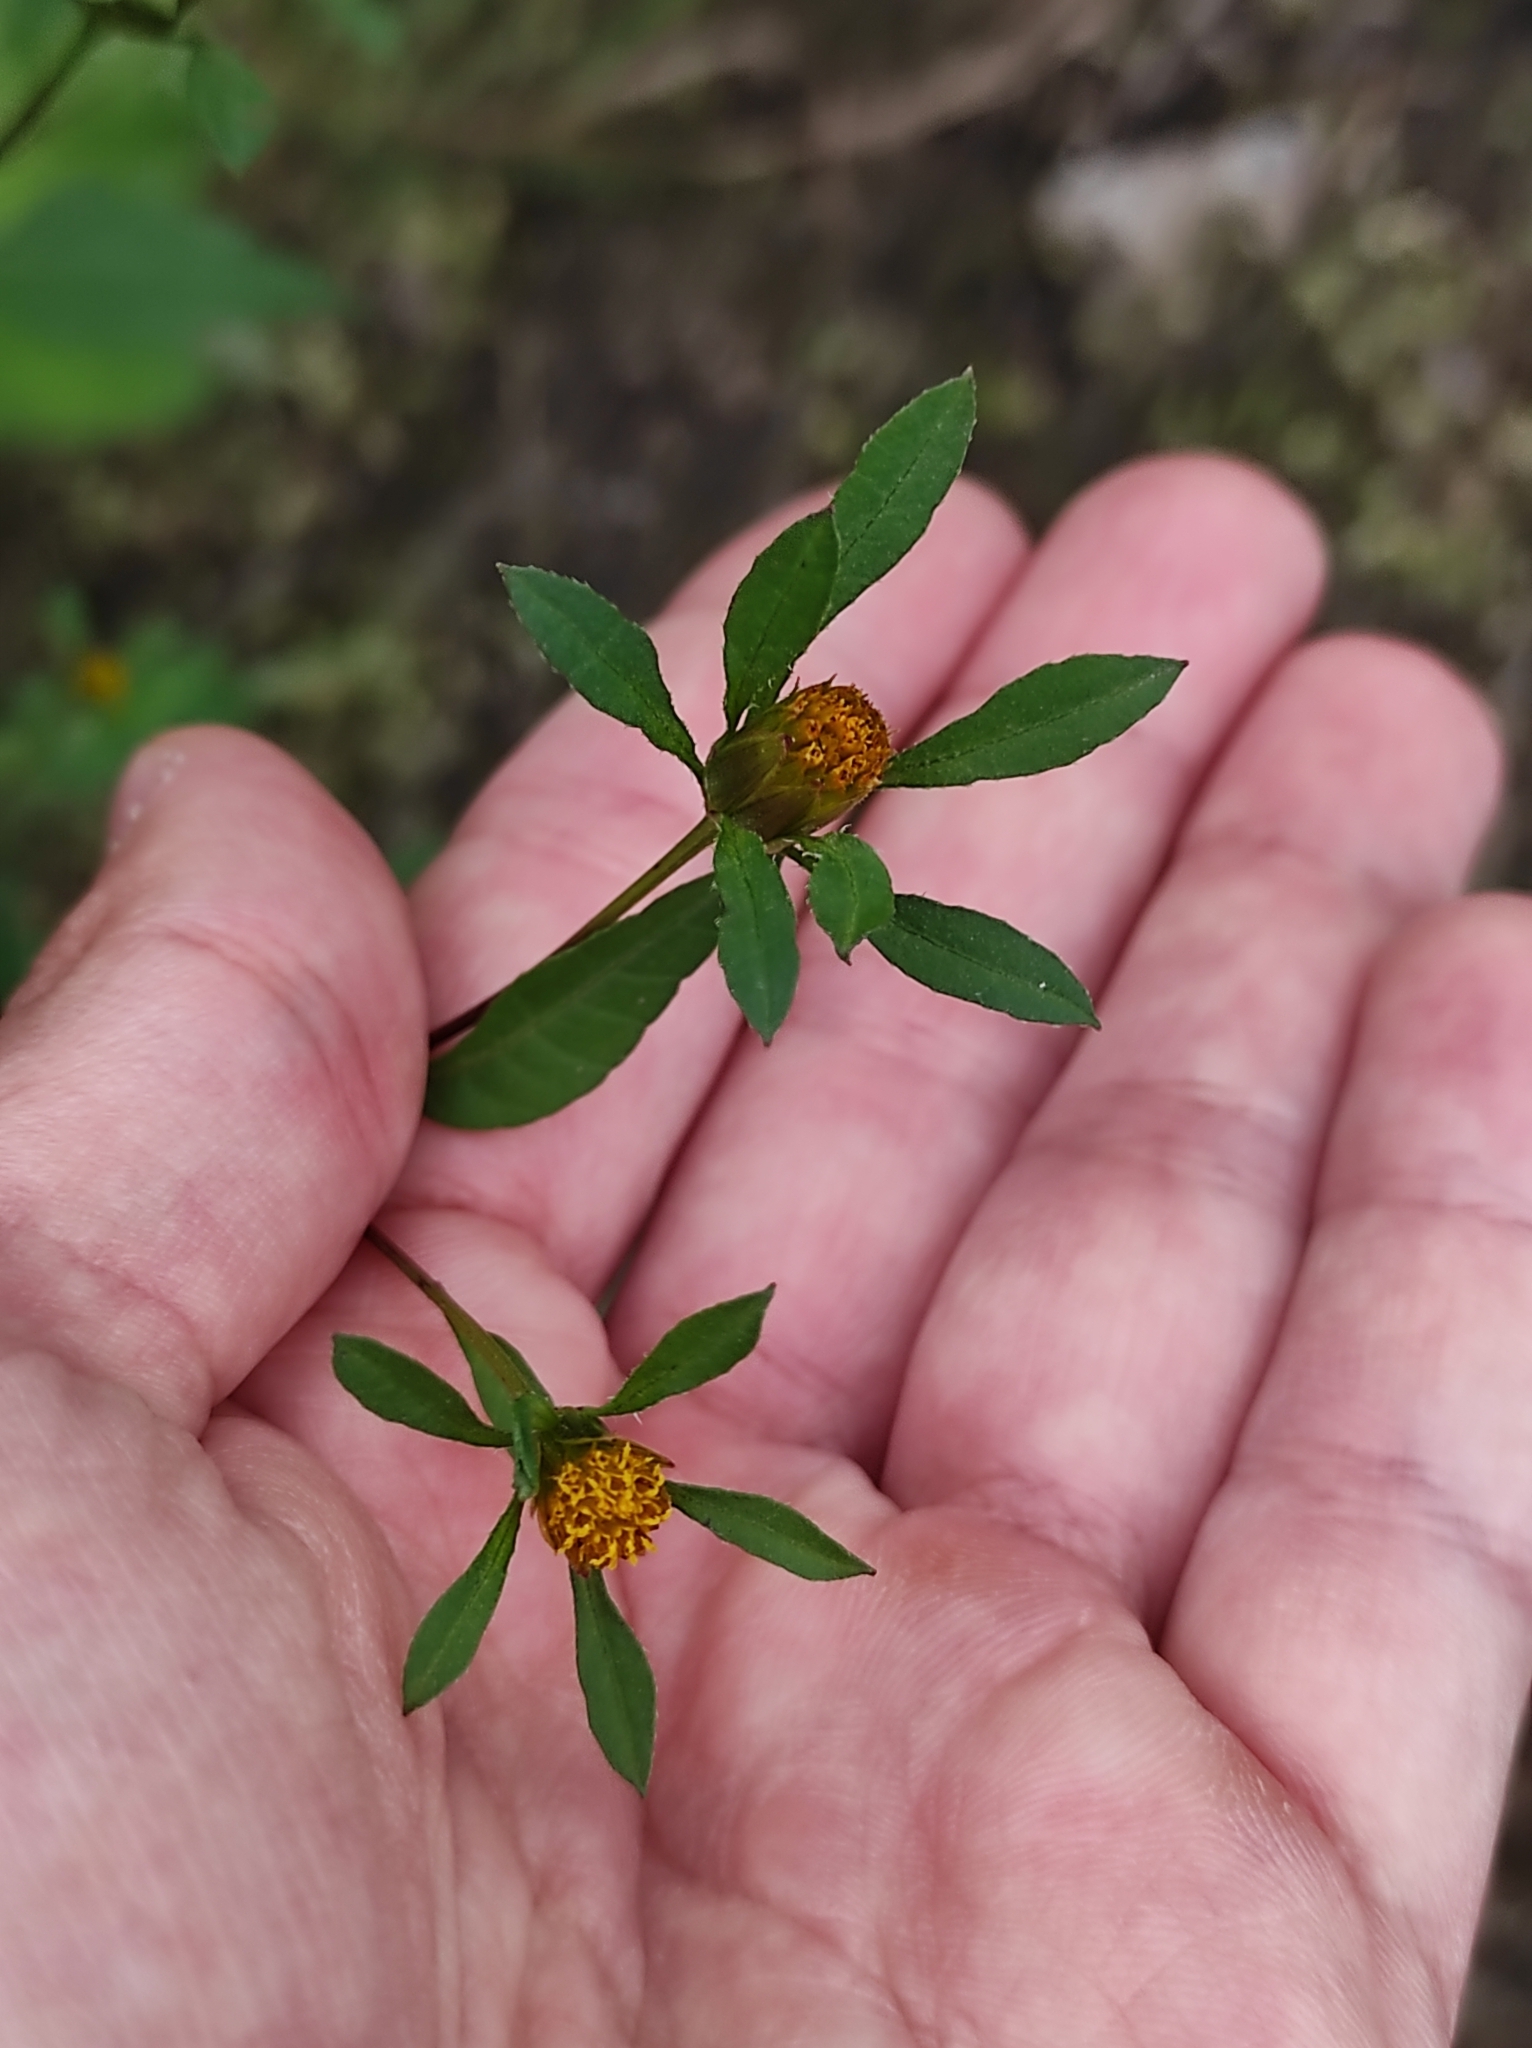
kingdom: Plantae
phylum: Tracheophyta
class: Magnoliopsida
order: Asterales
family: Asteraceae
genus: Bidens
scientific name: Bidens frondosa
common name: Beggarticks
